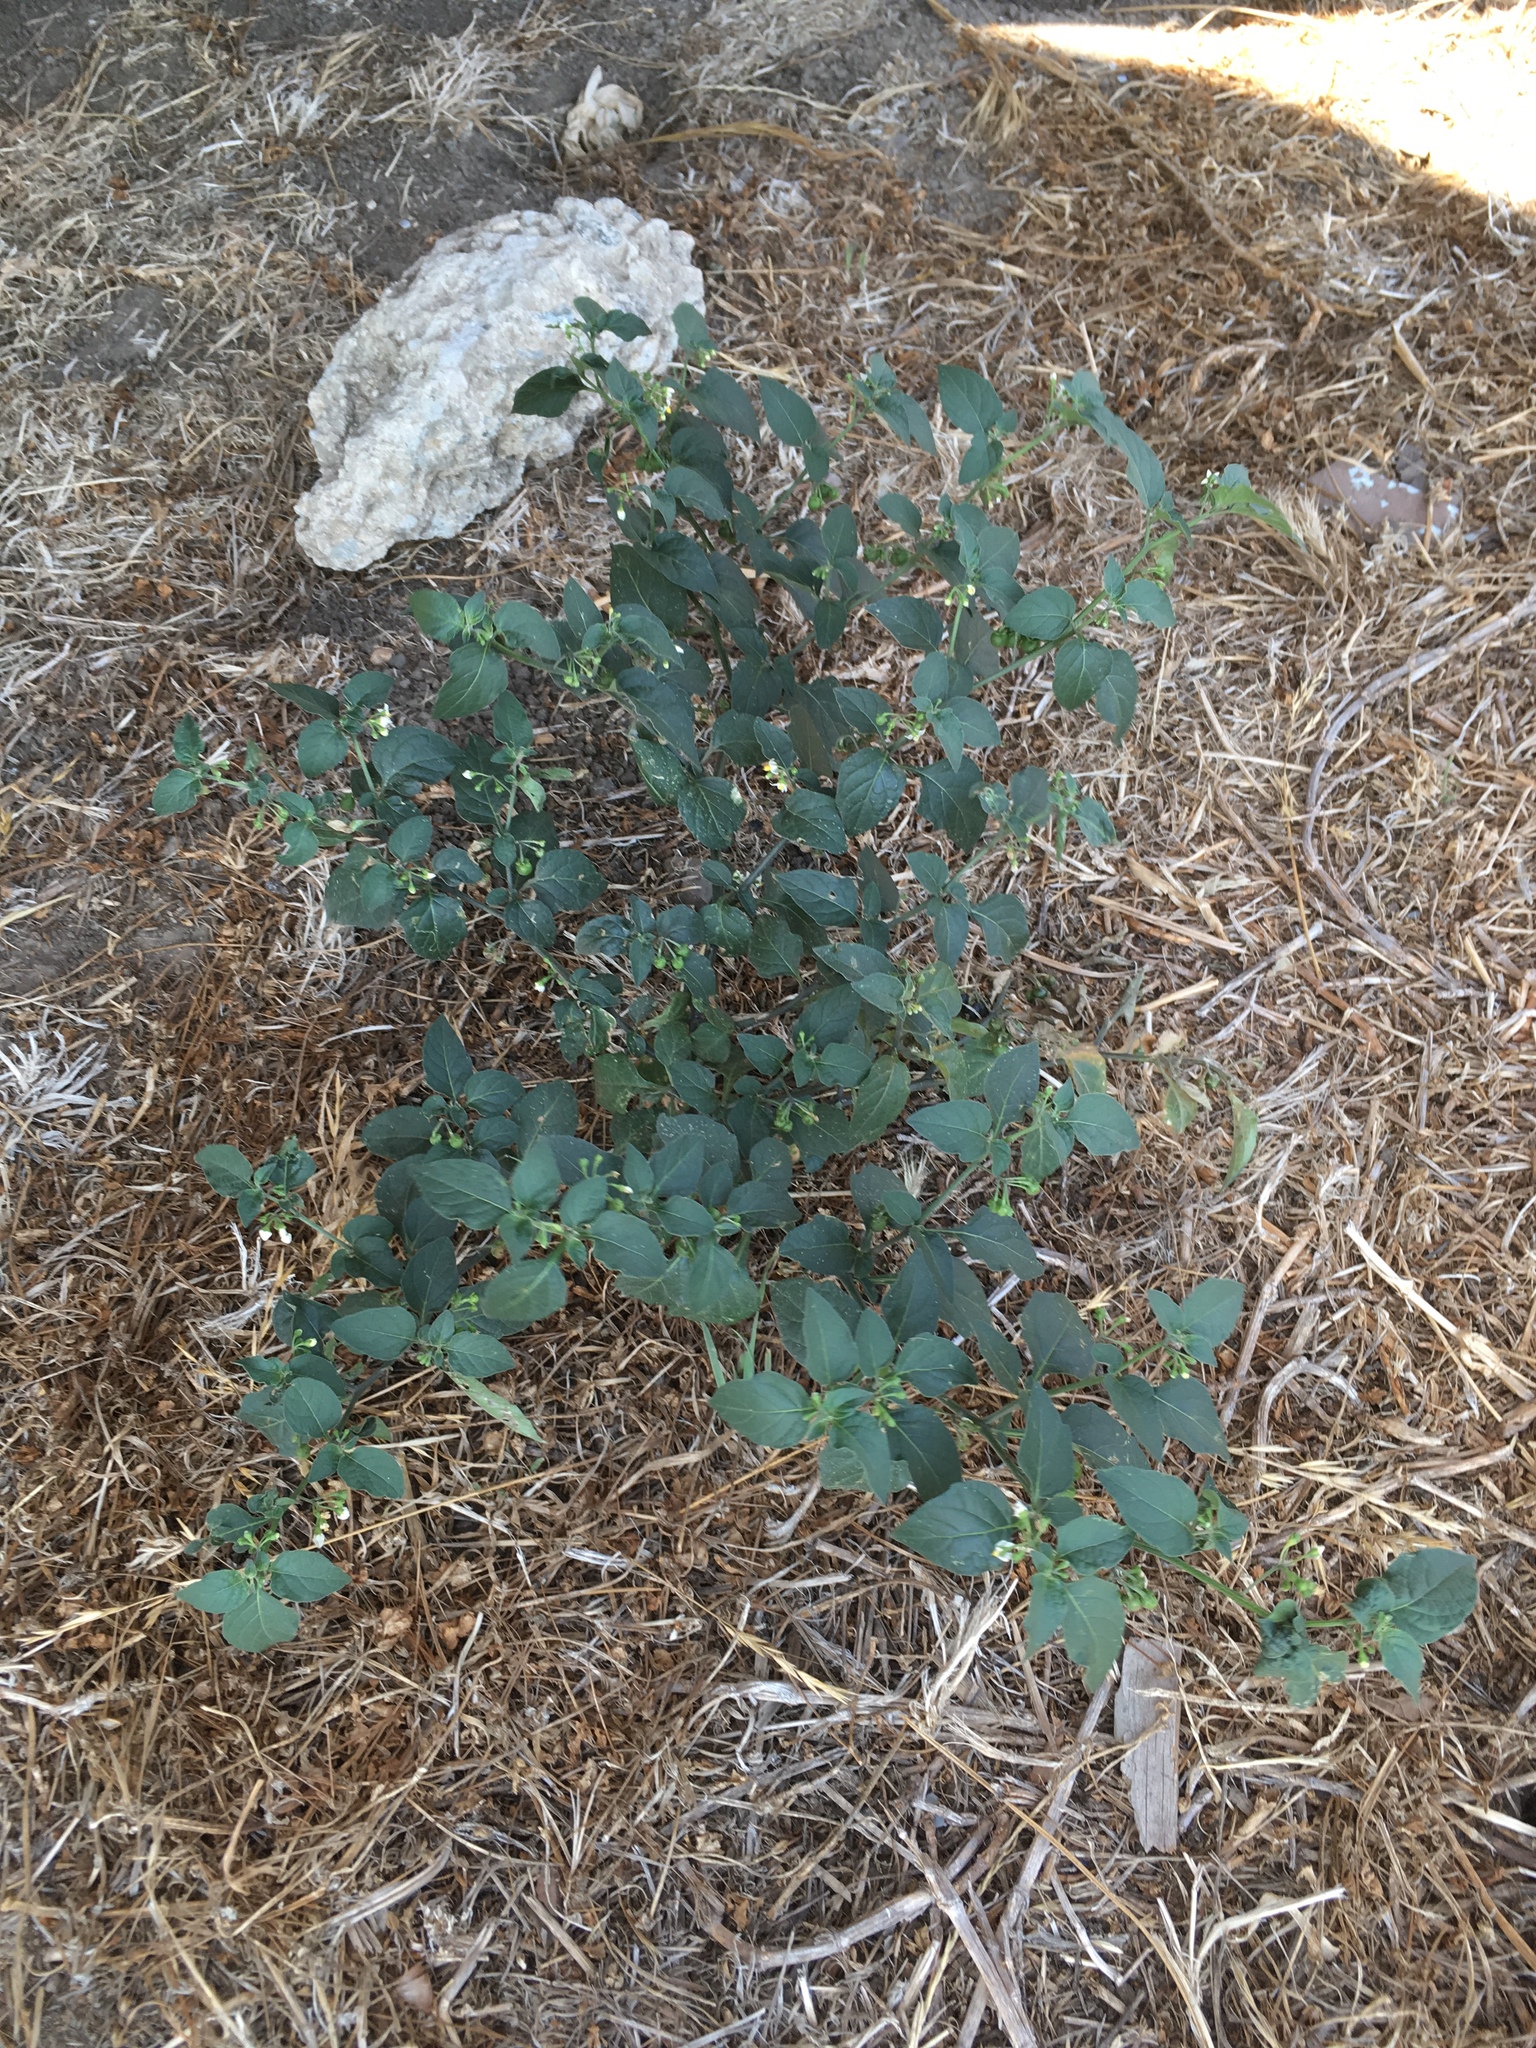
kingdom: Plantae
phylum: Tracheophyta
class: Magnoliopsida
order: Solanales
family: Solanaceae
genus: Solanum
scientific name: Solanum
